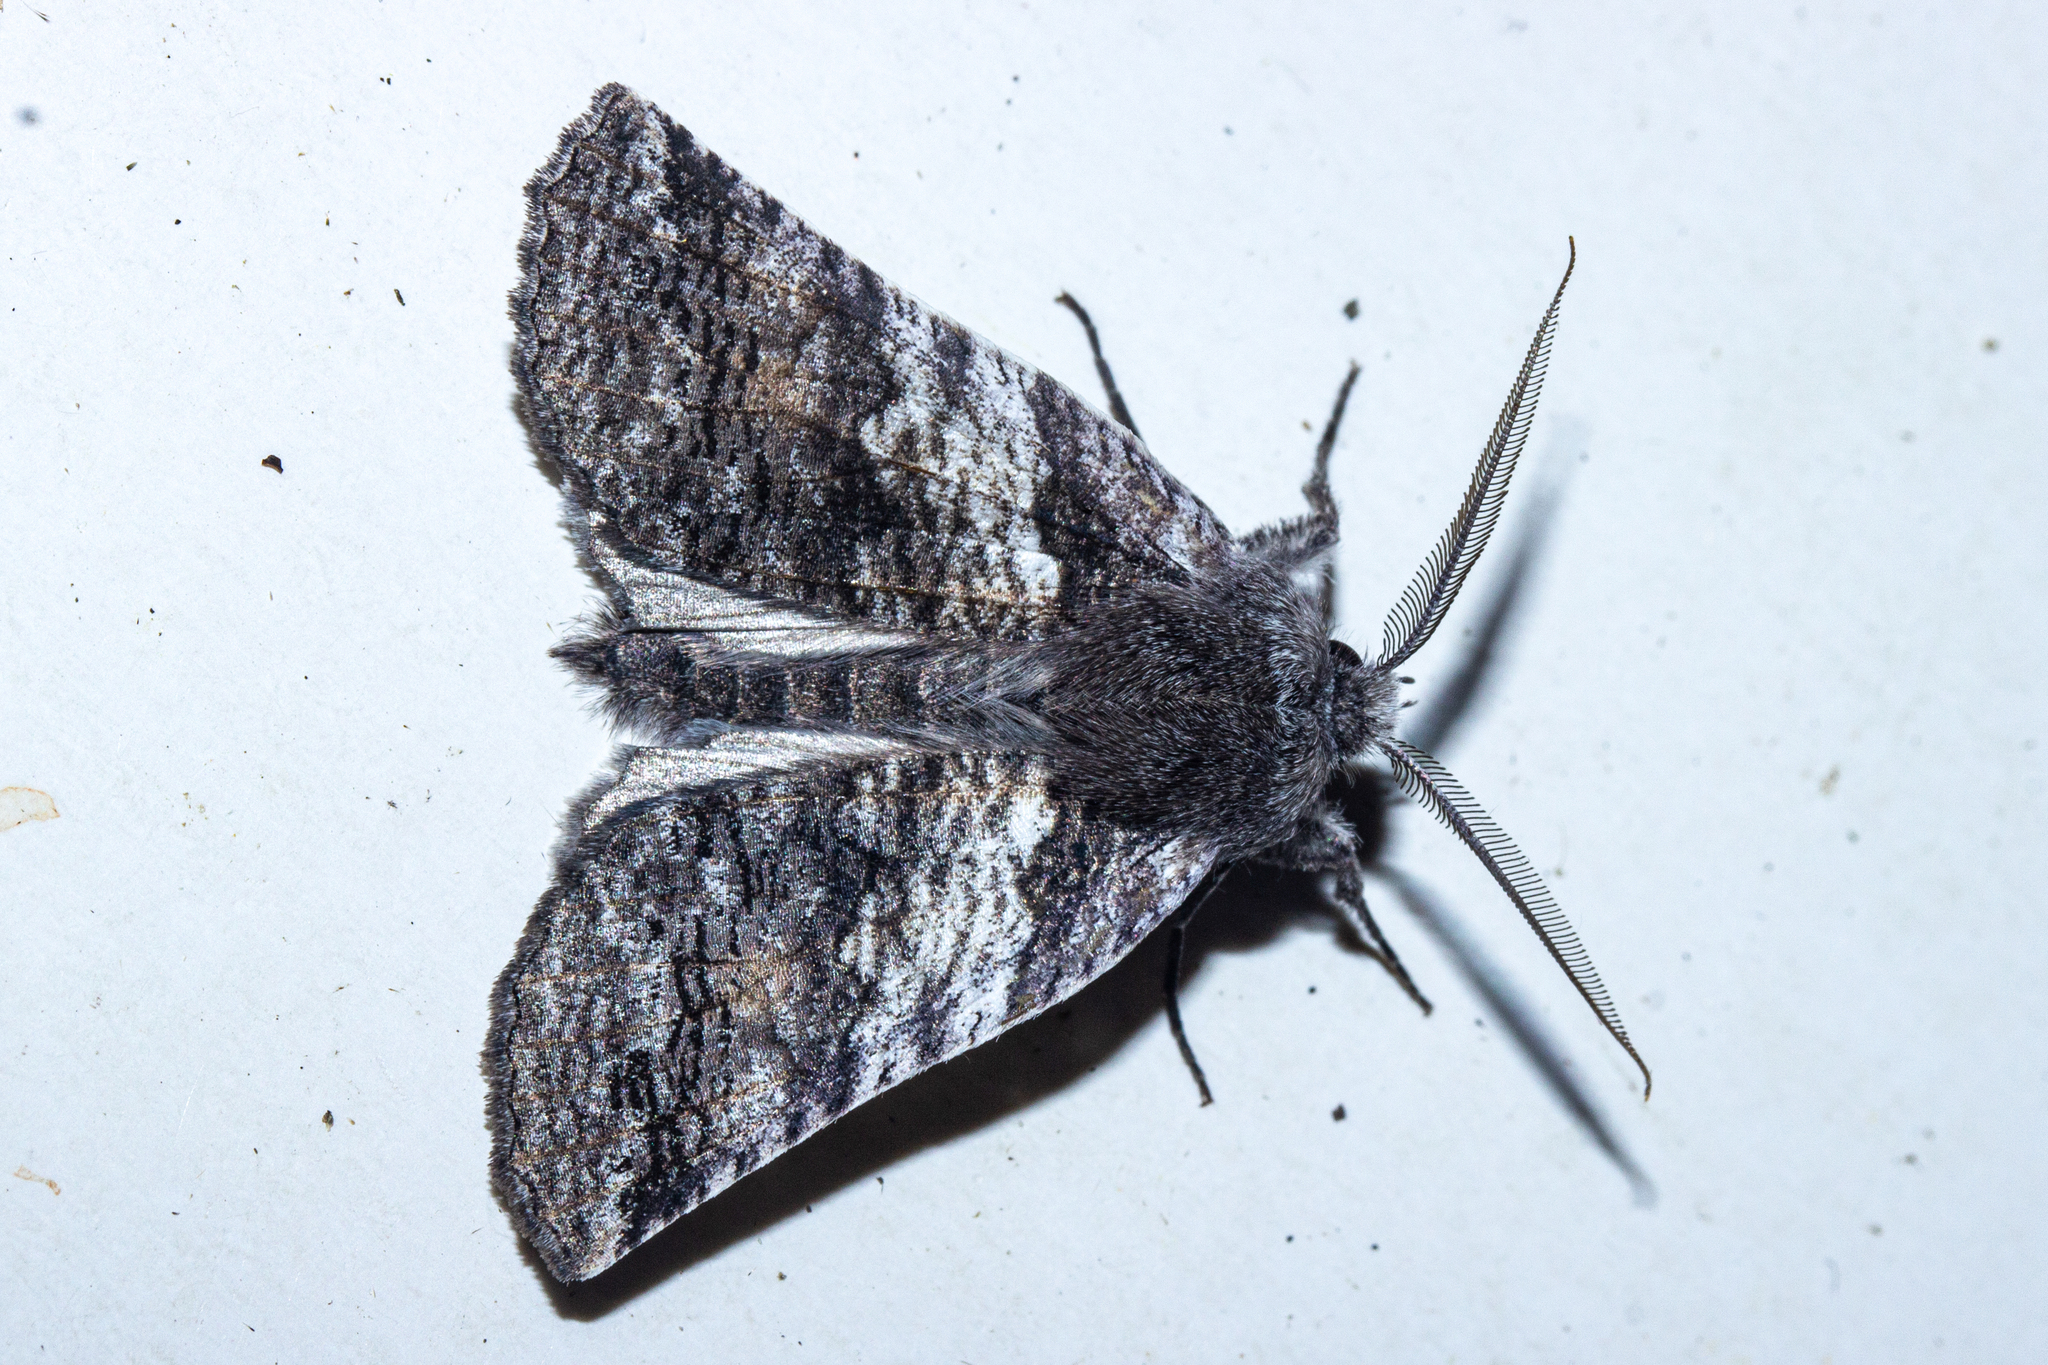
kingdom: Animalia
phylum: Arthropoda
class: Insecta
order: Lepidoptera
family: Geometridae
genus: Declana
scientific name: Declana
